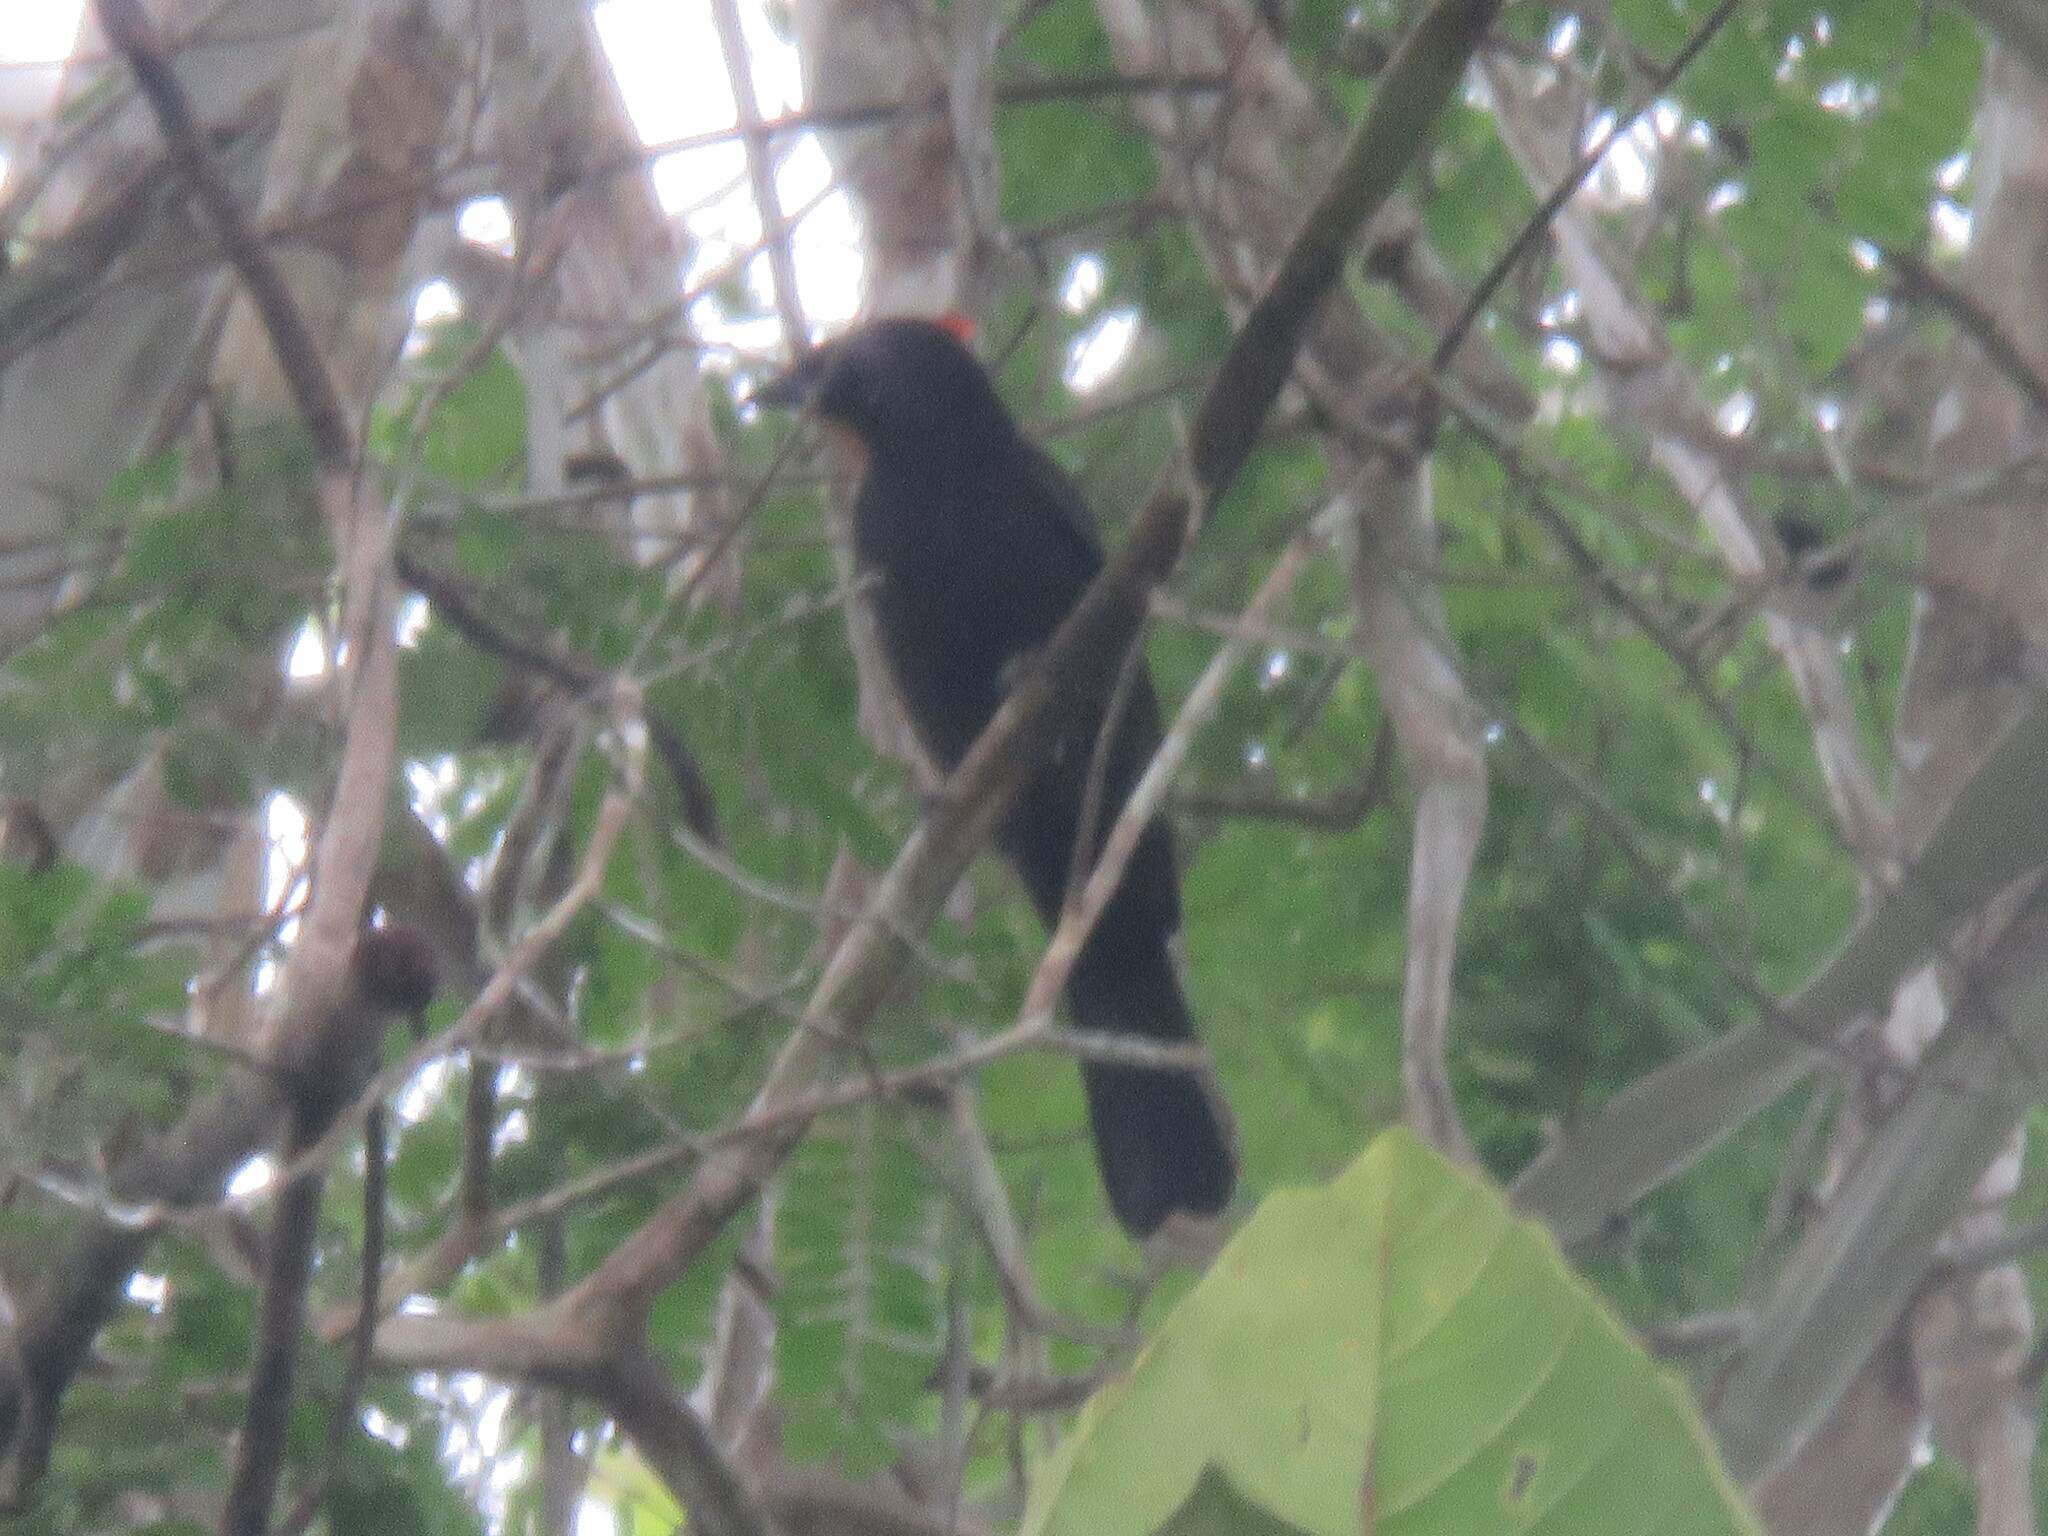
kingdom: Animalia
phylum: Chordata
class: Aves
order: Passeriformes
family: Thraupidae
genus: Loriotus
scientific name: Loriotus cristatus
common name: Flame-crested tanager
